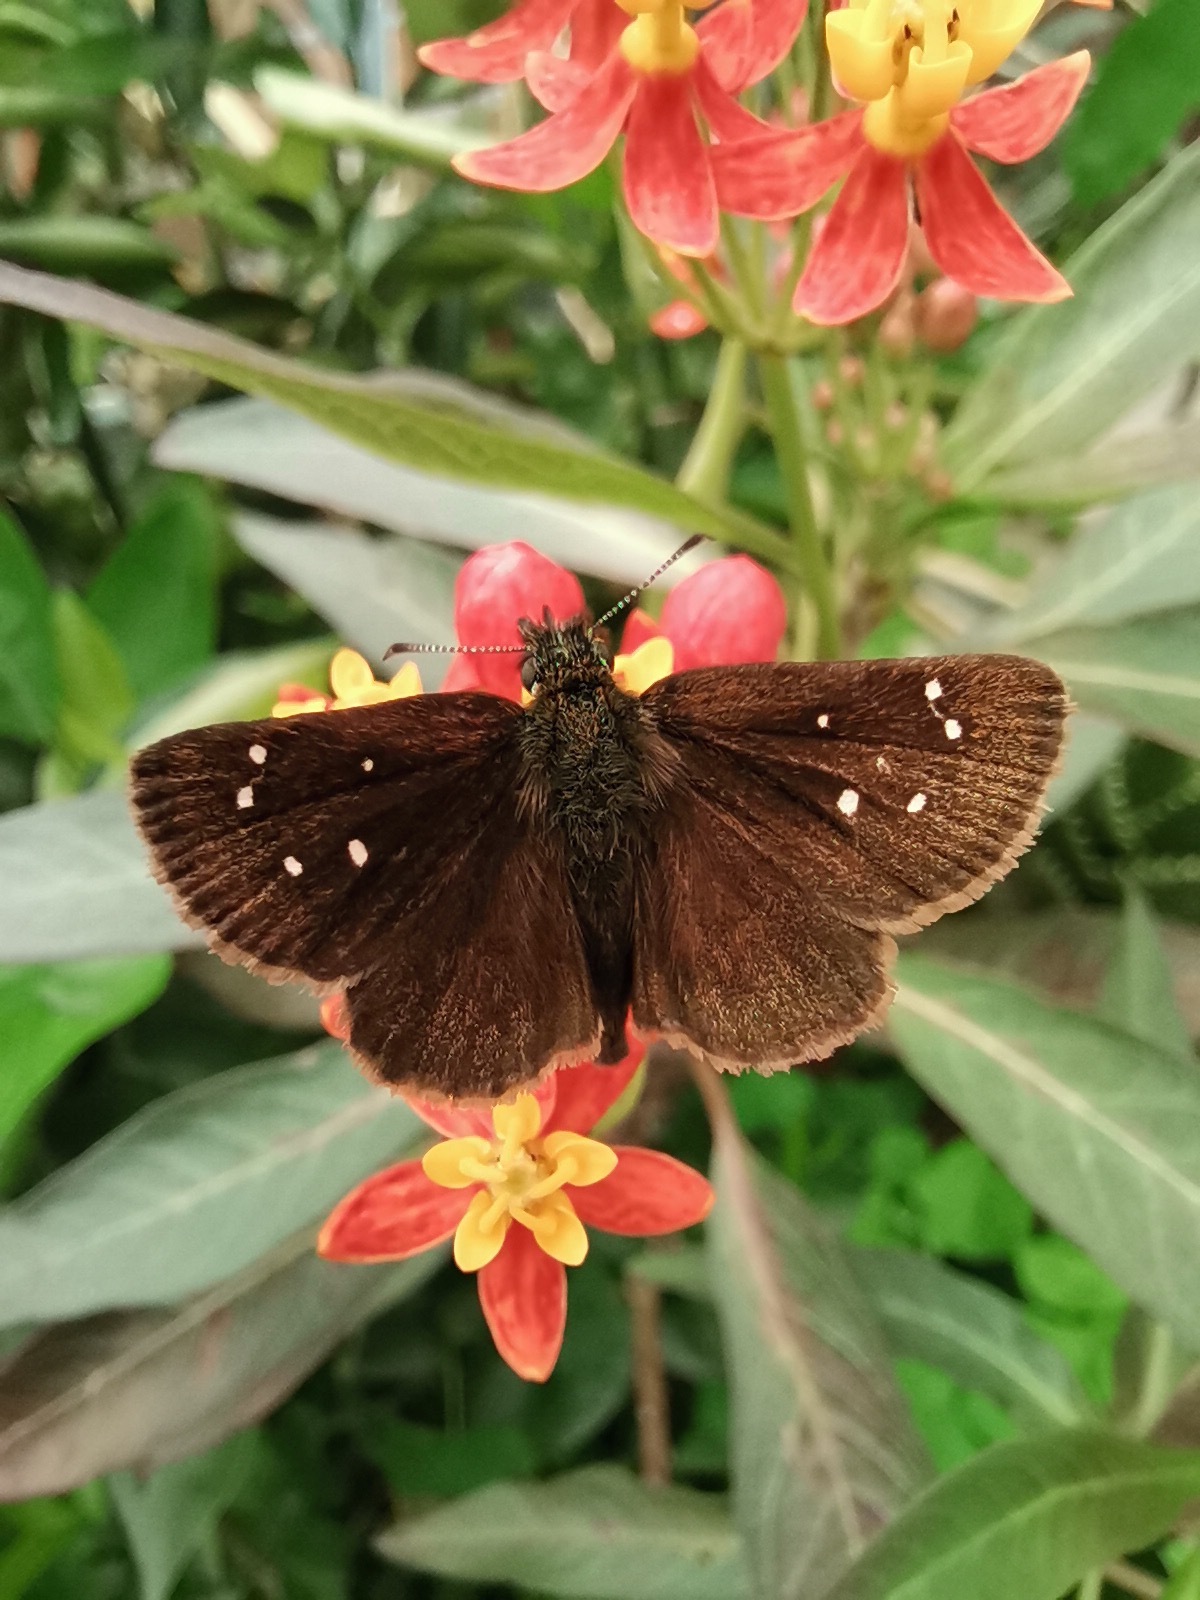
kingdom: Animalia
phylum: Arthropoda
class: Insecta
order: Lepidoptera
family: Hesperiidae
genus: Piruna
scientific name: Piruna brunnea
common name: Chocolate skipperling
